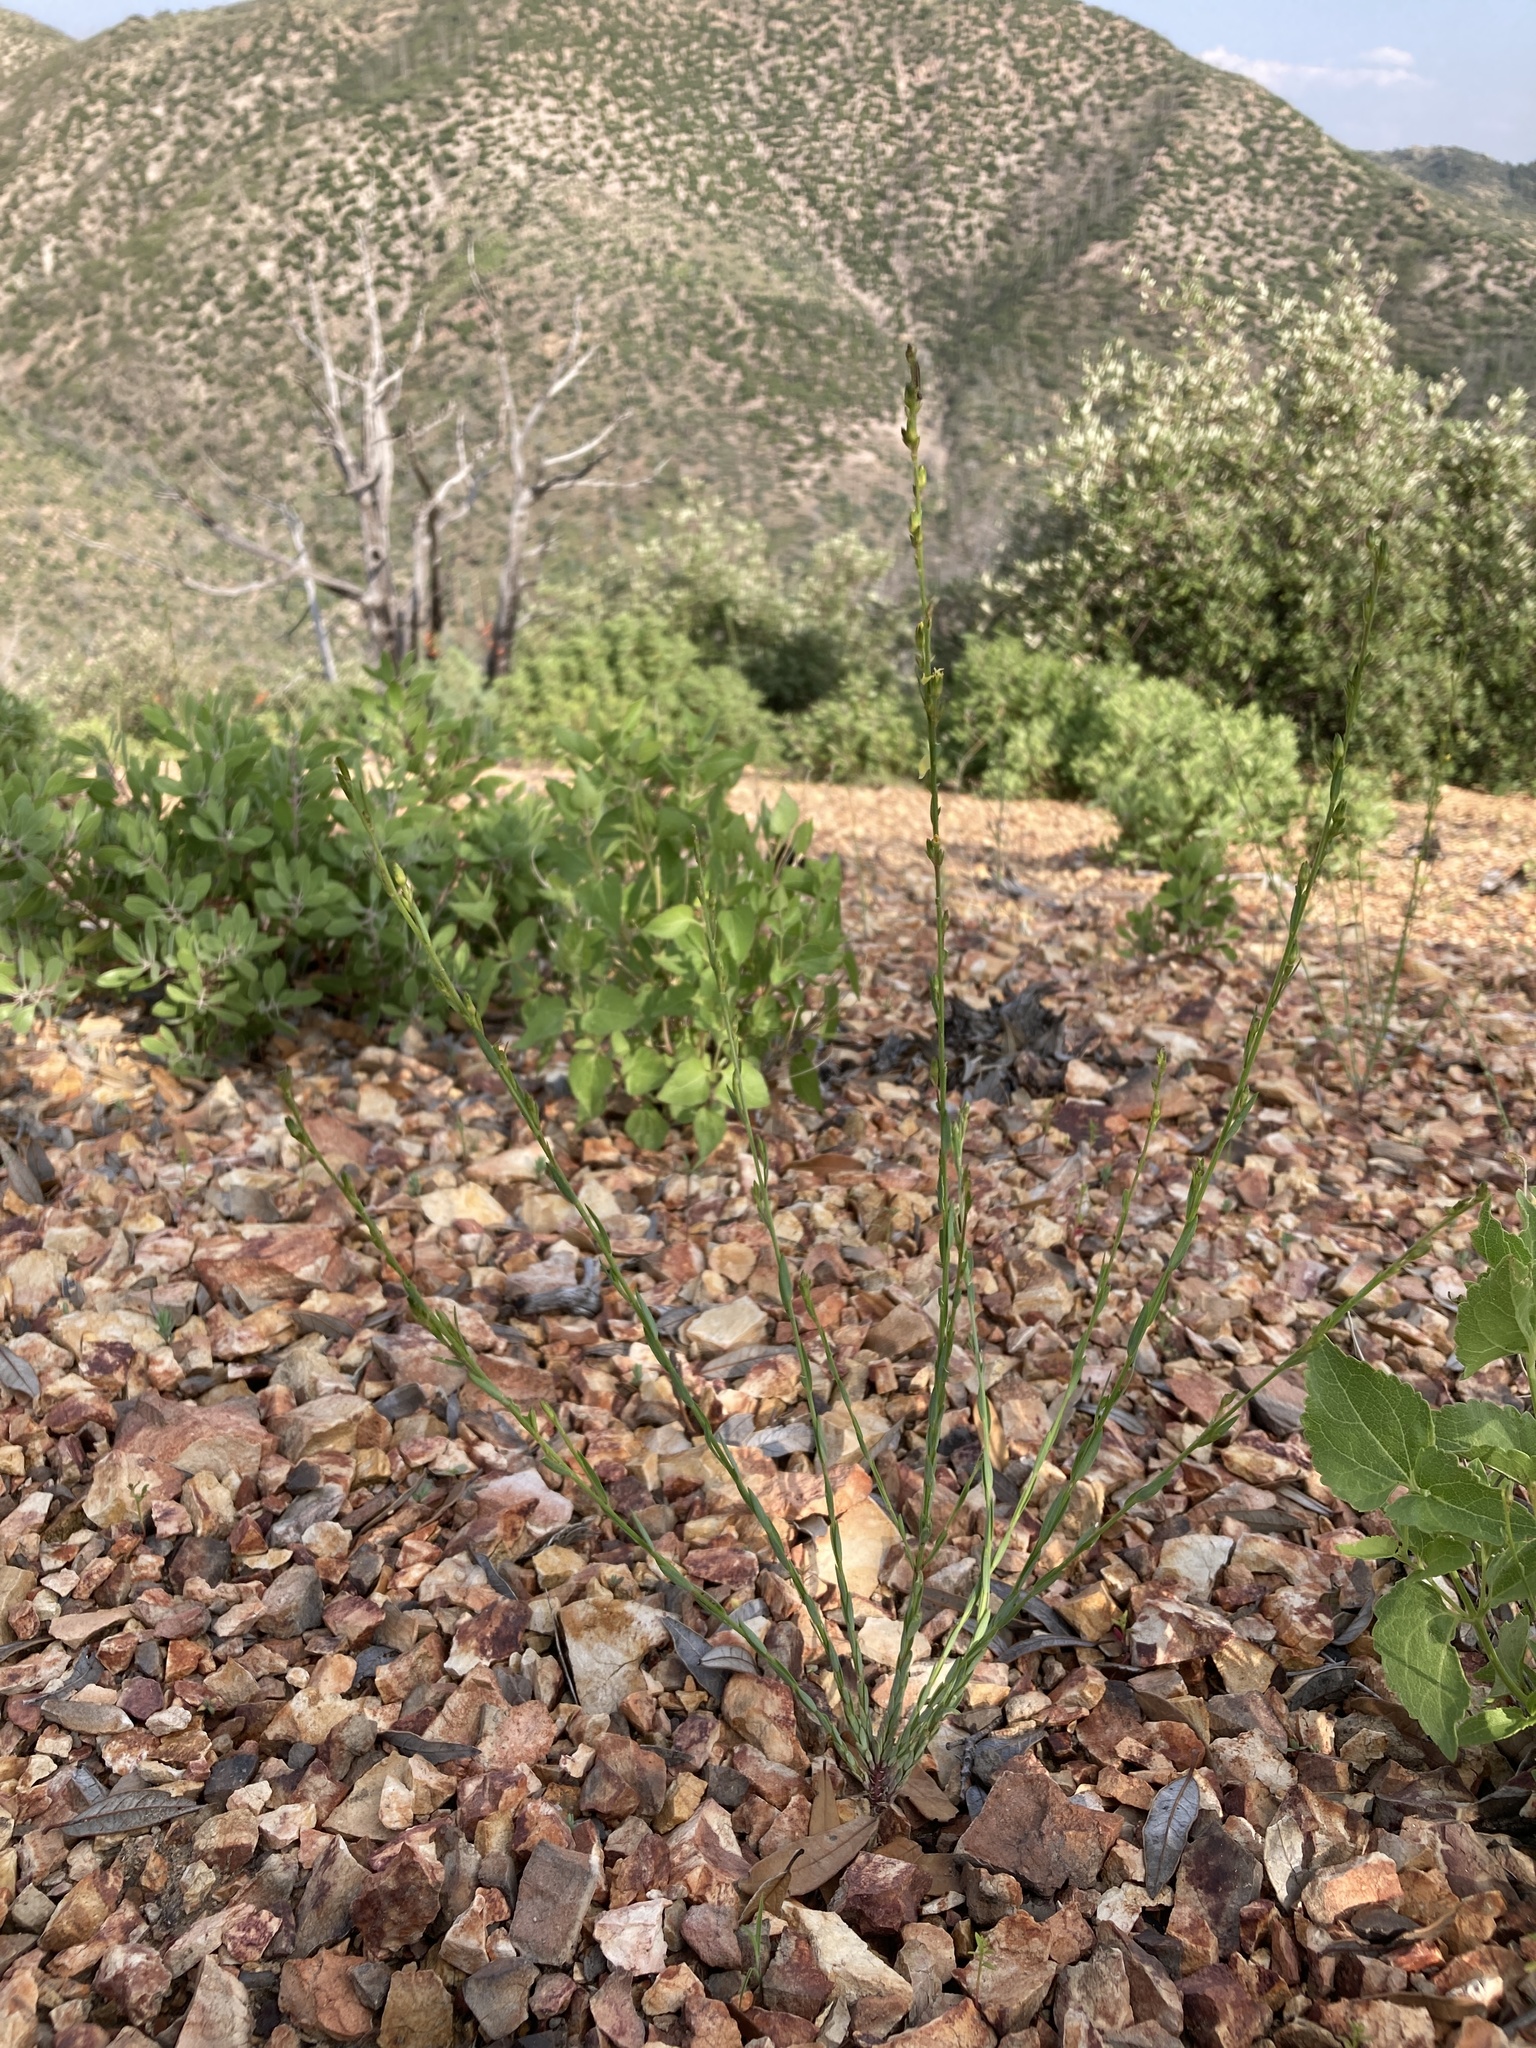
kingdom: Plantae
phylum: Tracheophyta
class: Magnoliopsida
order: Malpighiales
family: Linaceae
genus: Linum
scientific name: Linum neomexicanum
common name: New mexico yellow flax
